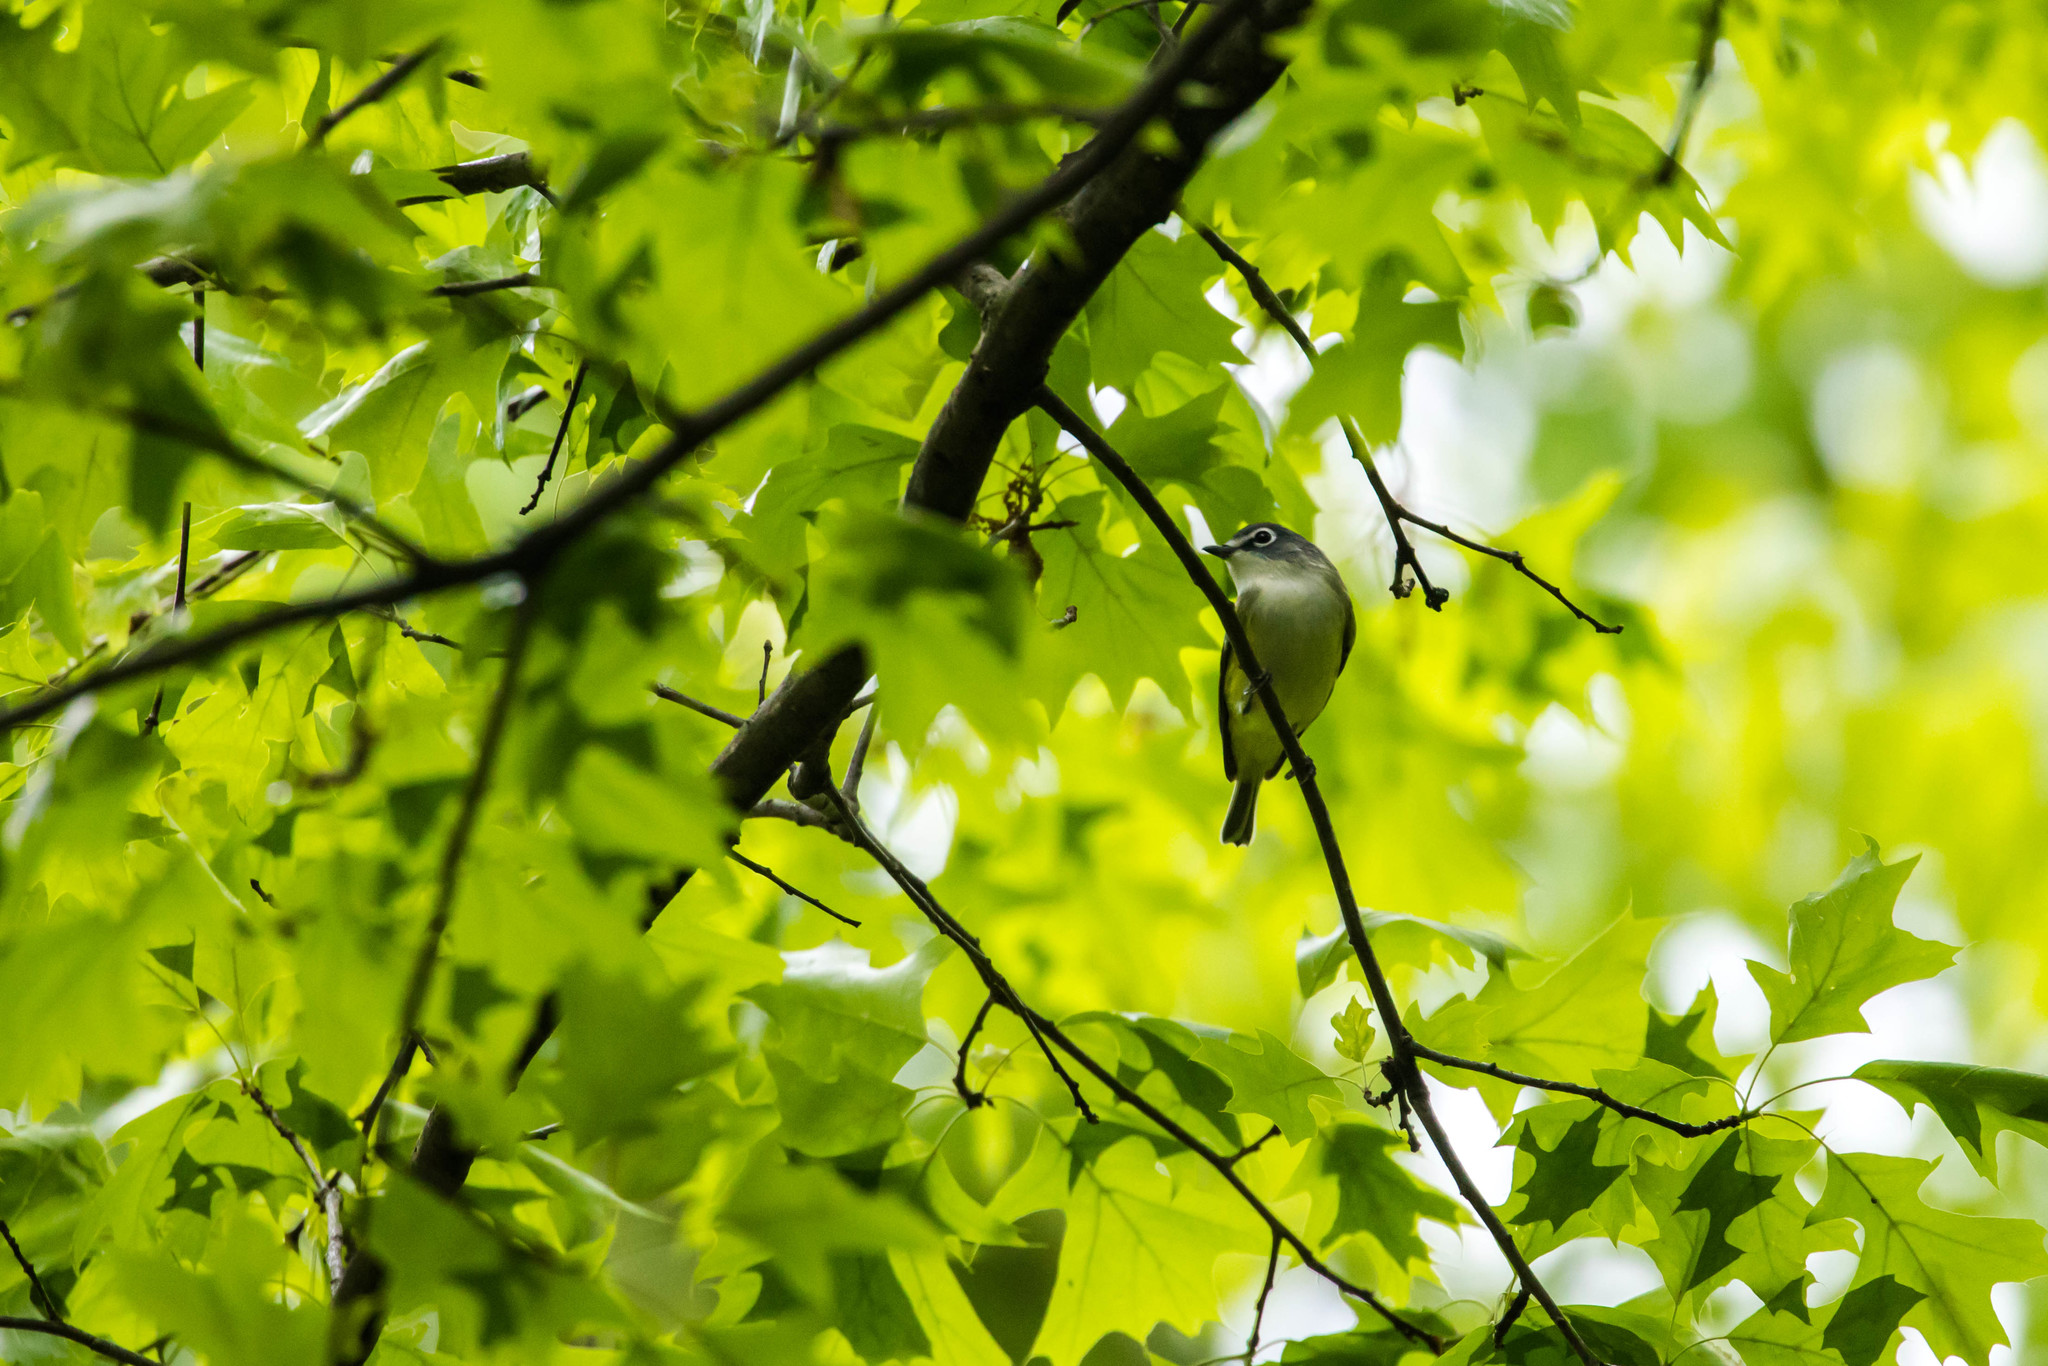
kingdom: Animalia
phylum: Chordata
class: Aves
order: Passeriformes
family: Vireonidae
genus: Vireo
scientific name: Vireo solitarius
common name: Blue-headed vireo
